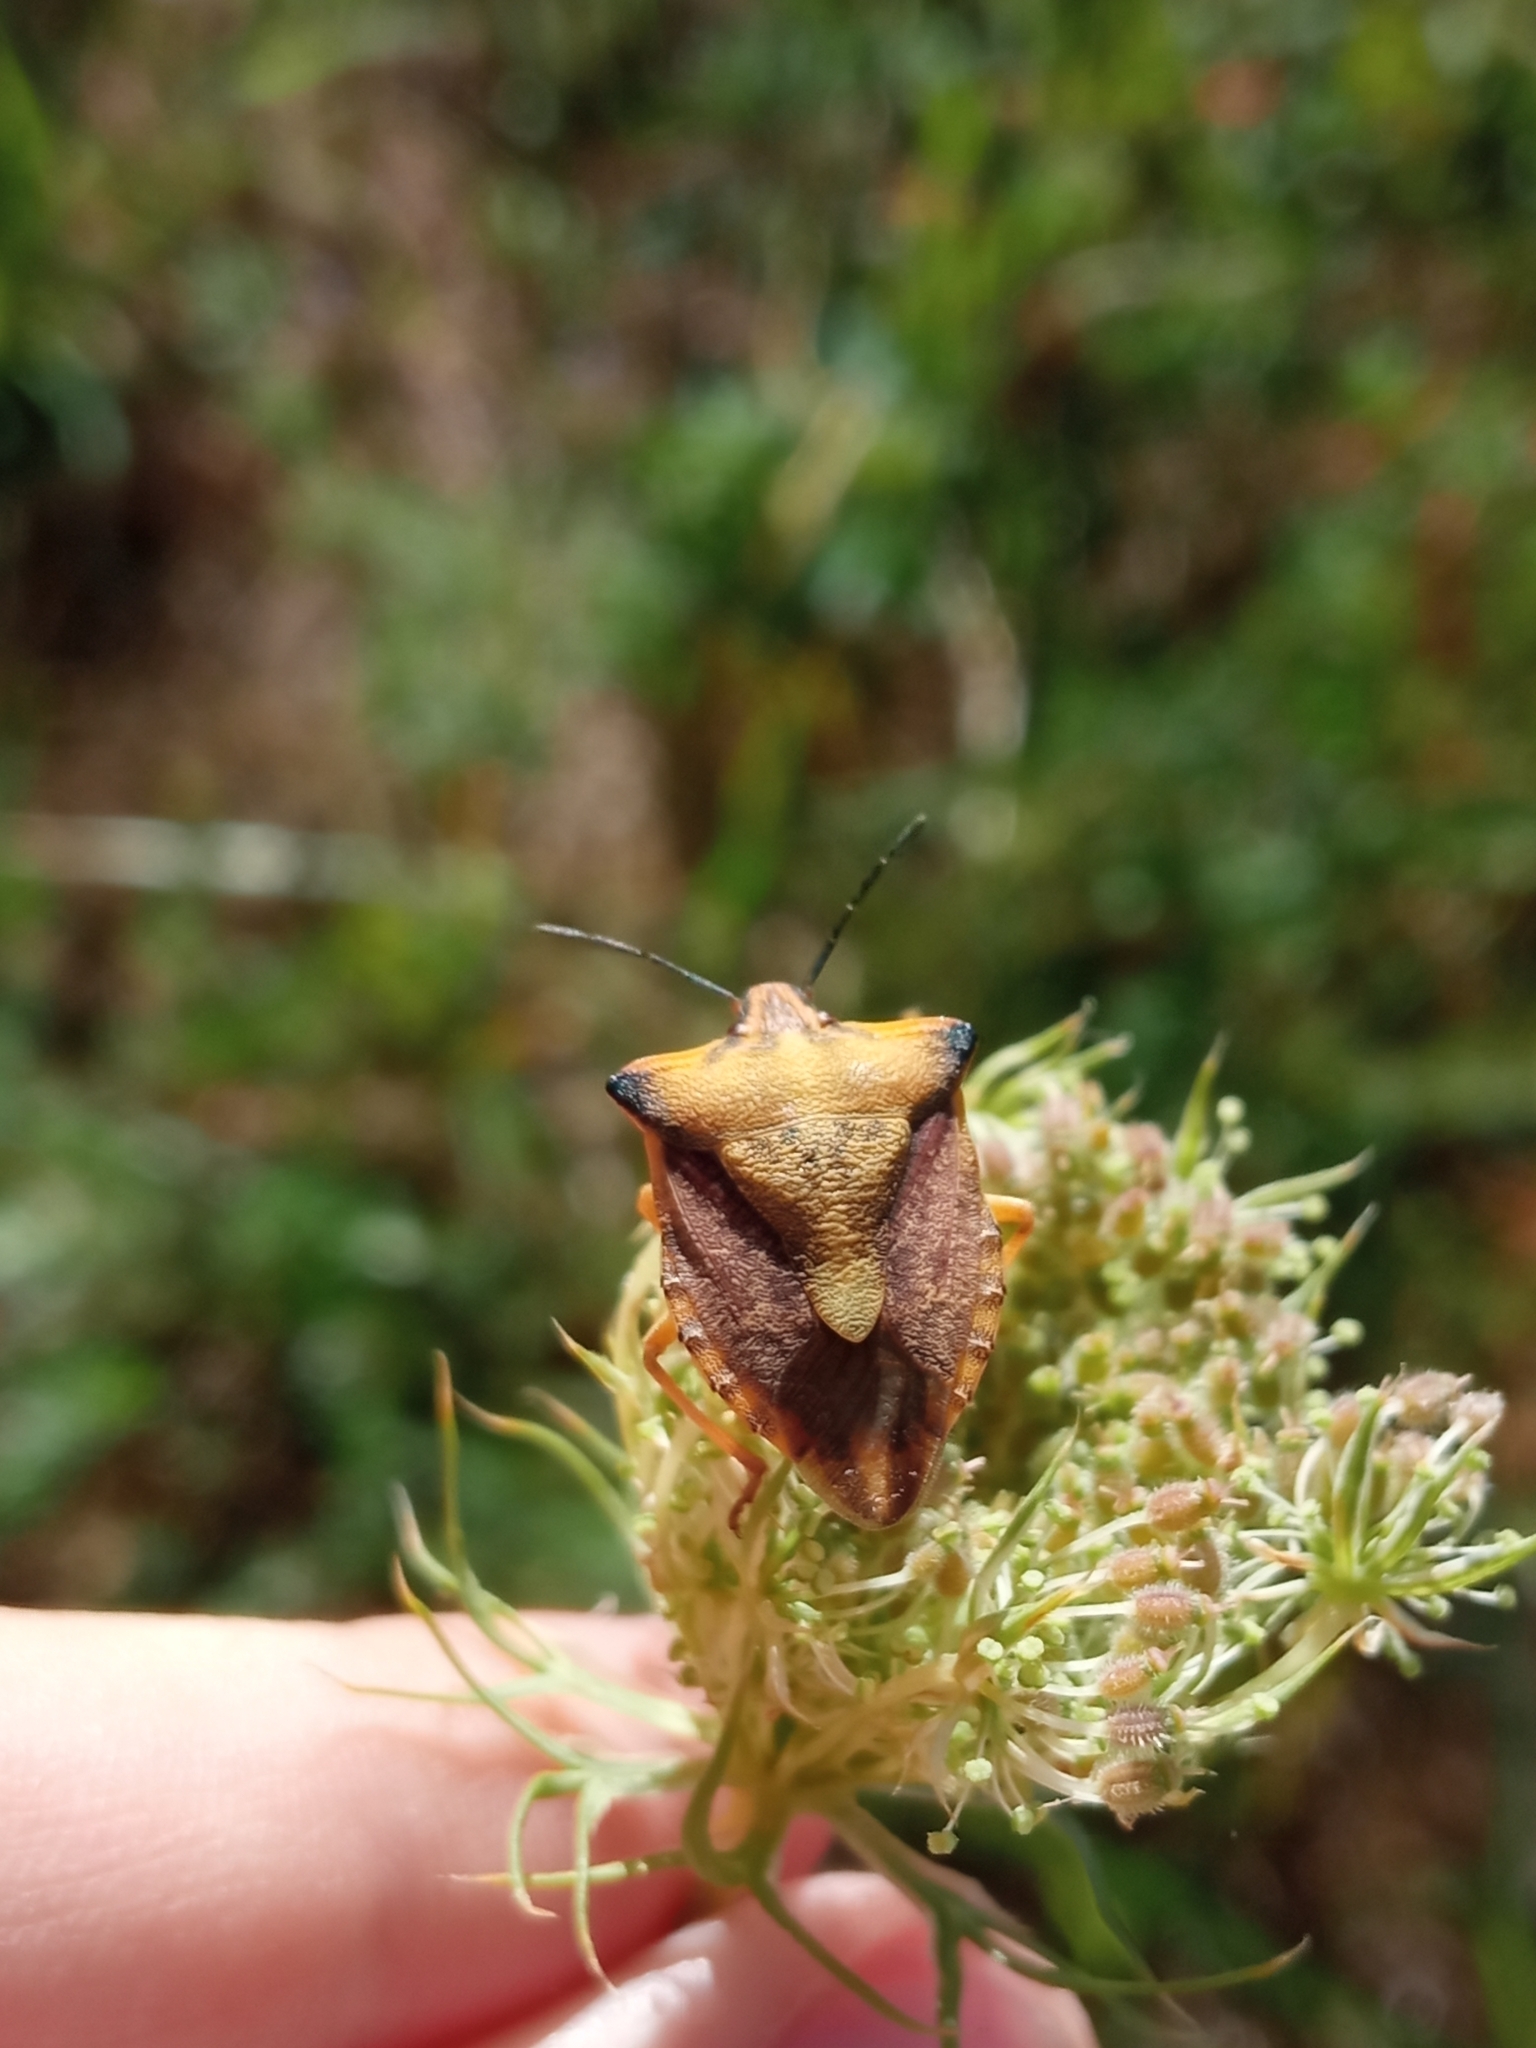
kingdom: Animalia
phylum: Arthropoda
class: Insecta
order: Hemiptera
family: Pentatomidae
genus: Carpocoris
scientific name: Carpocoris fuscispinus
